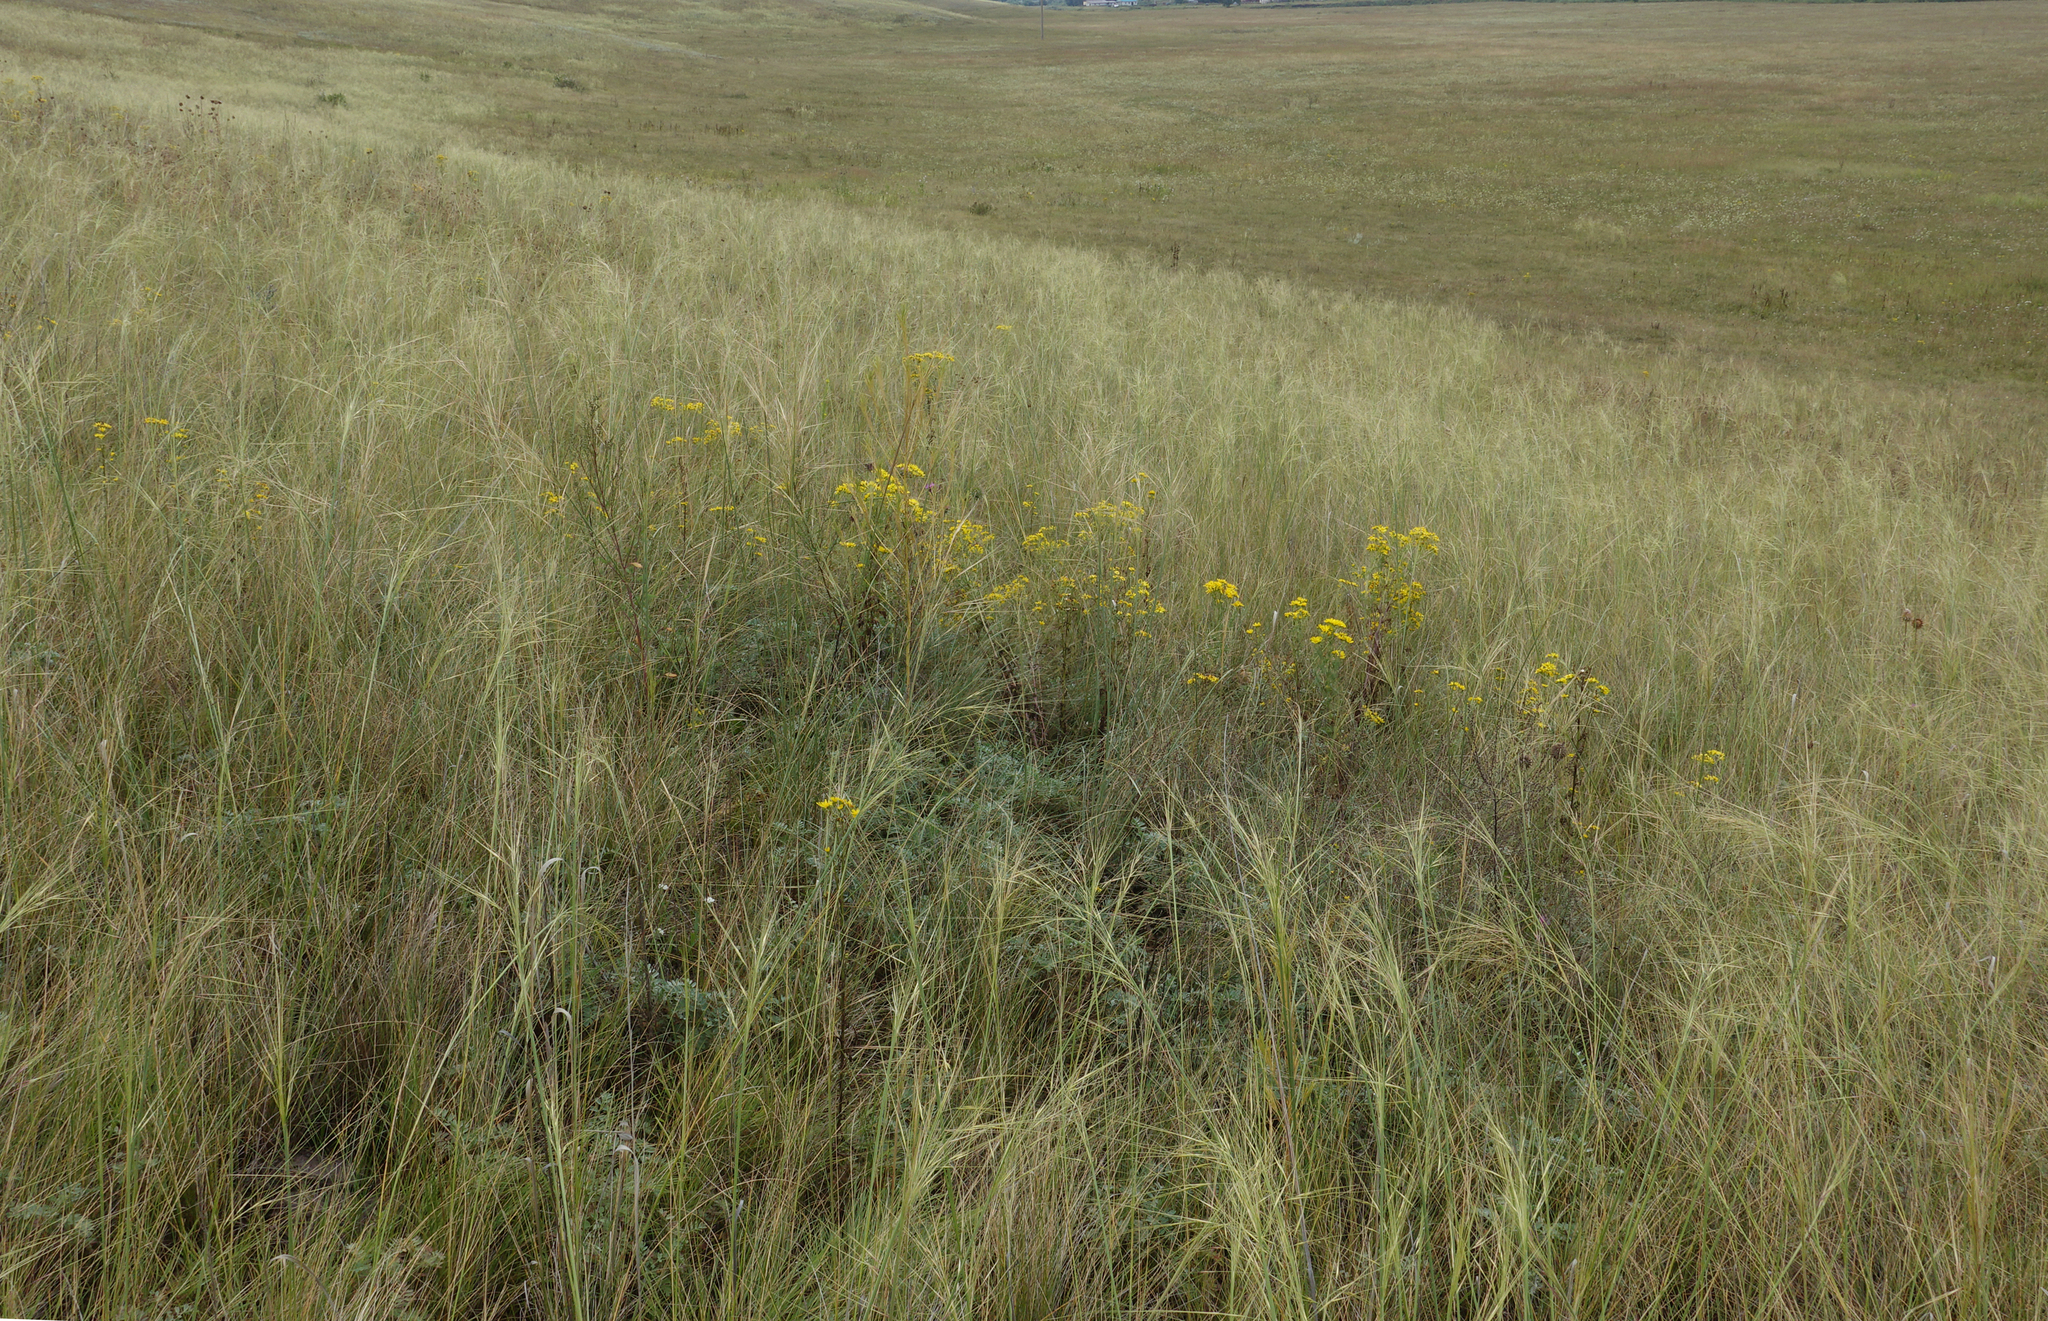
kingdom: Plantae
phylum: Tracheophyta
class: Liliopsida
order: Poales
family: Poaceae
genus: Stipa
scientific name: Stipa capillata
